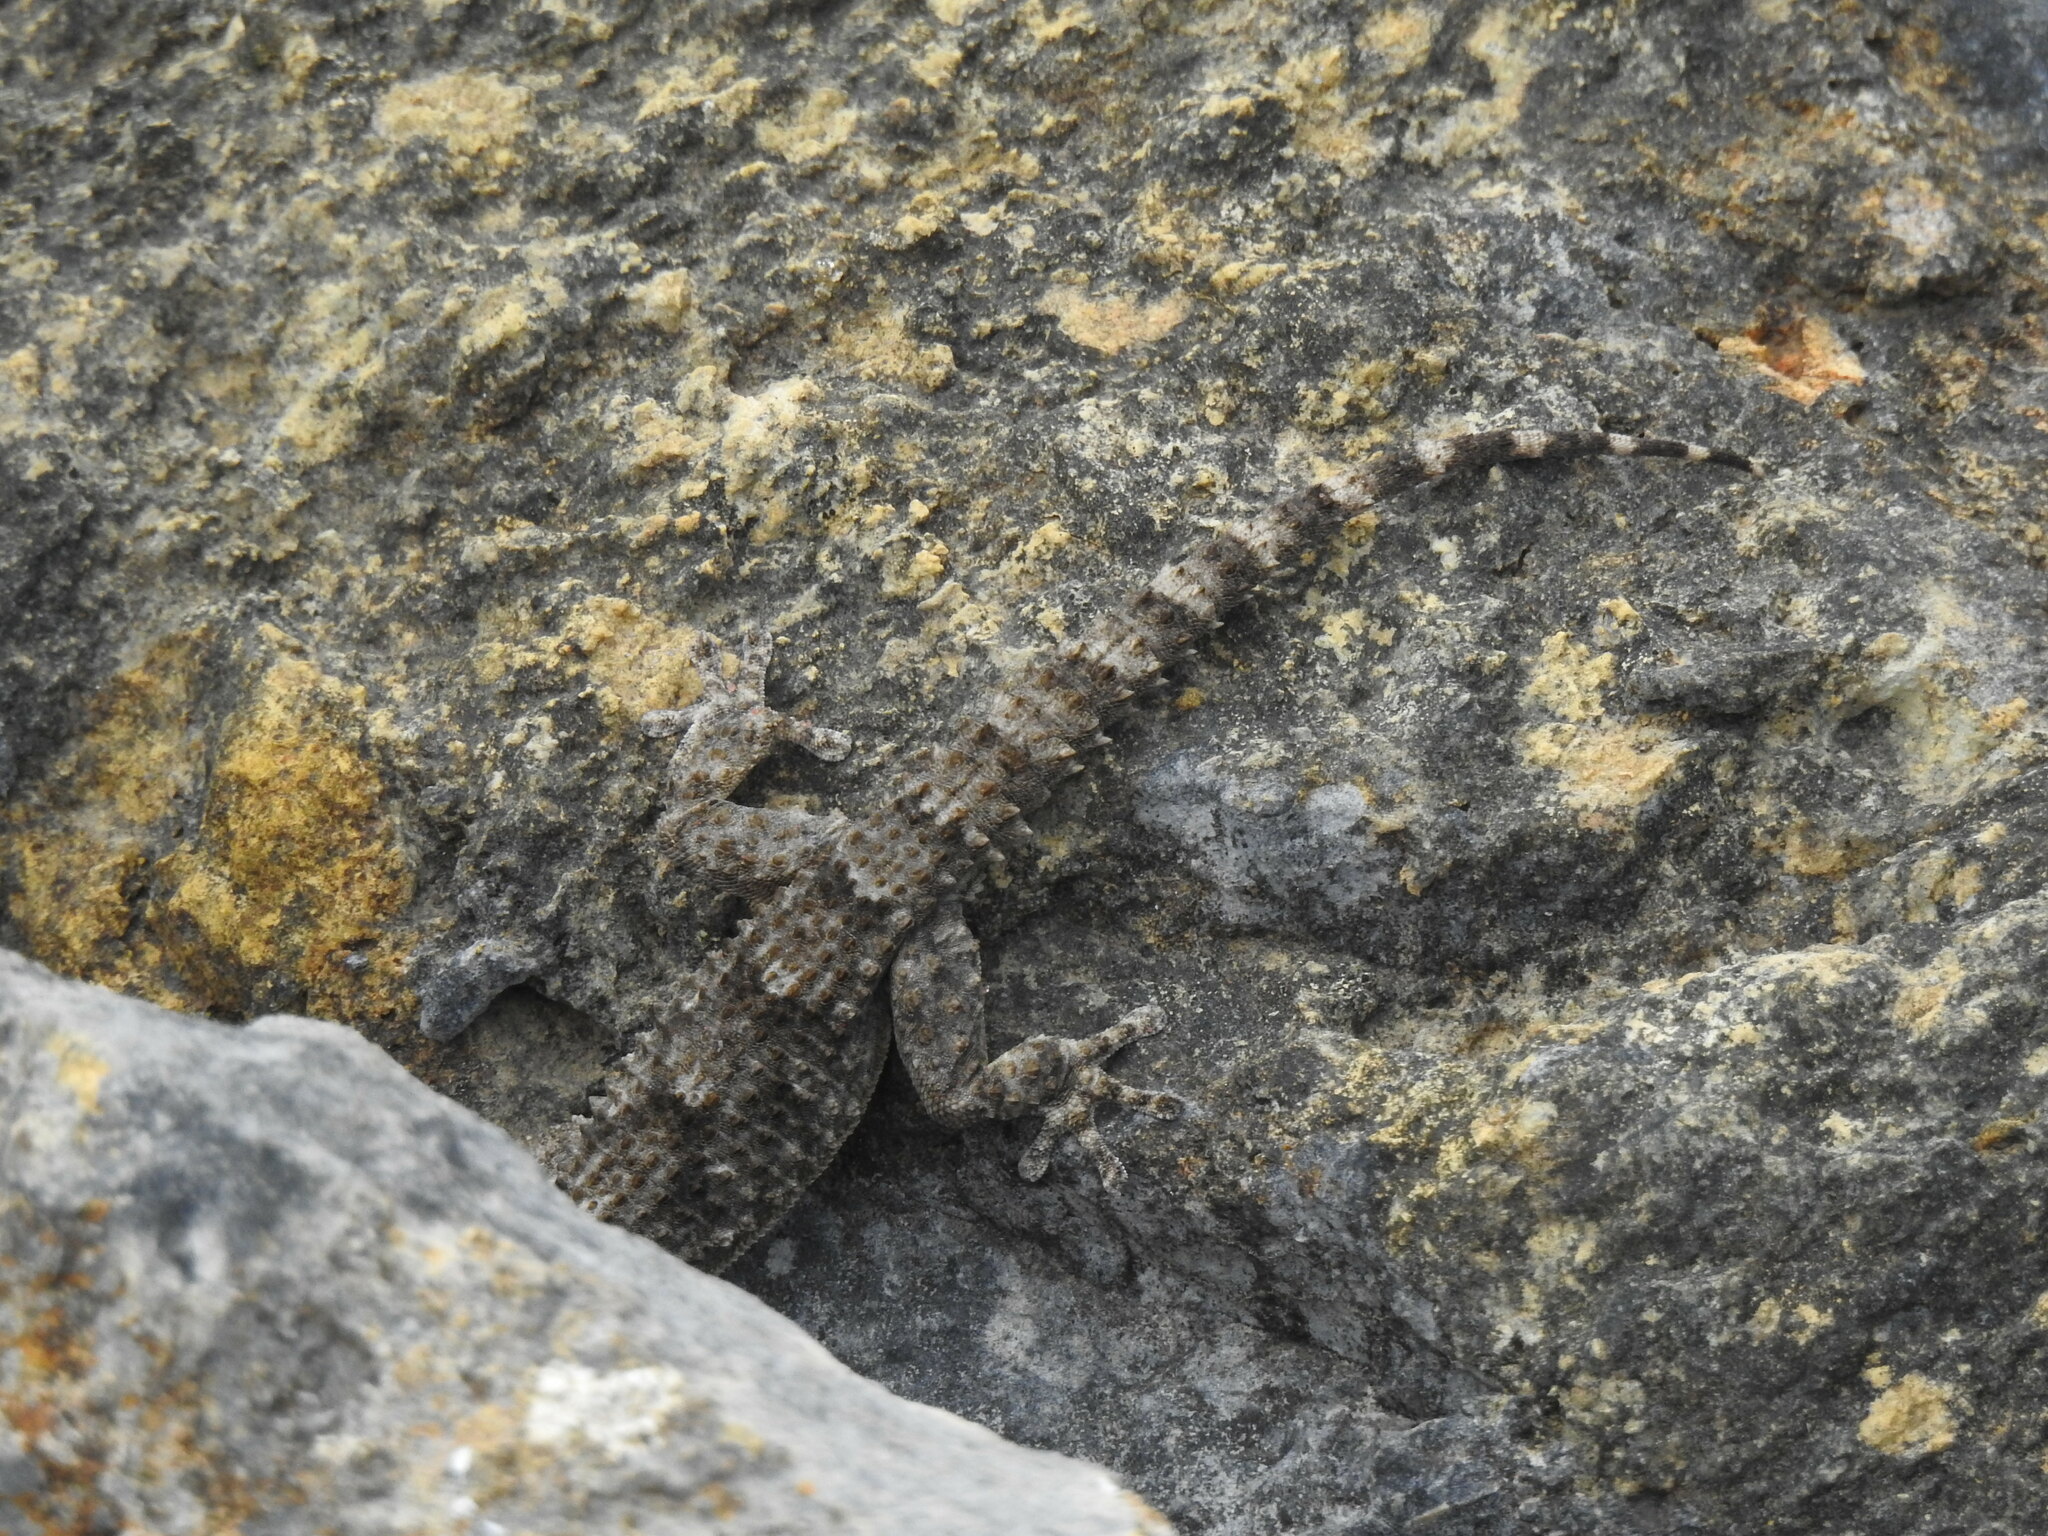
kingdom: Animalia
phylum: Chordata
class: Squamata
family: Phyllodactylidae
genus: Tarentola
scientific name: Tarentola mauritanica
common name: Moorish gecko
